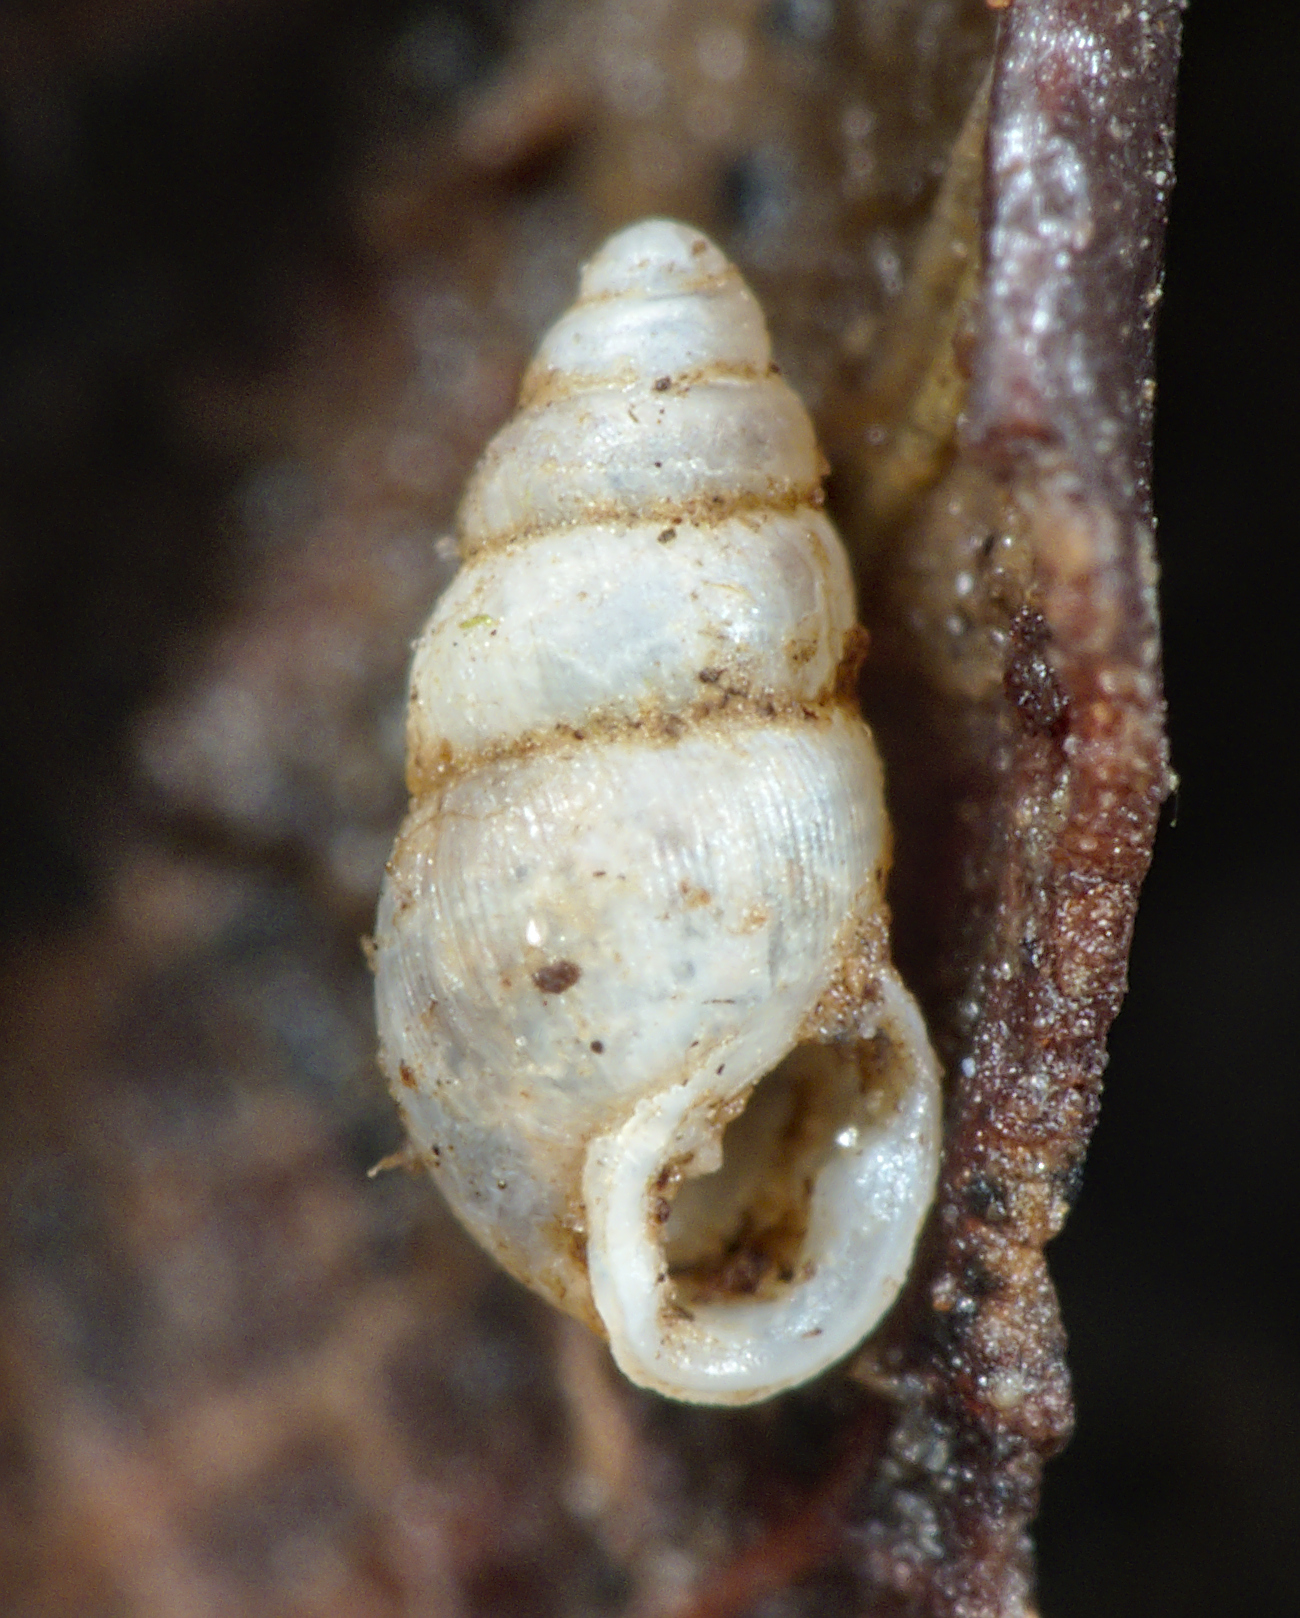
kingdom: Animalia
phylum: Mollusca
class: Gastropoda
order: Ellobiida
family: Ellobiidae
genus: Carychium
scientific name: Carychium tridentatum
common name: Long-toothed herald snail
